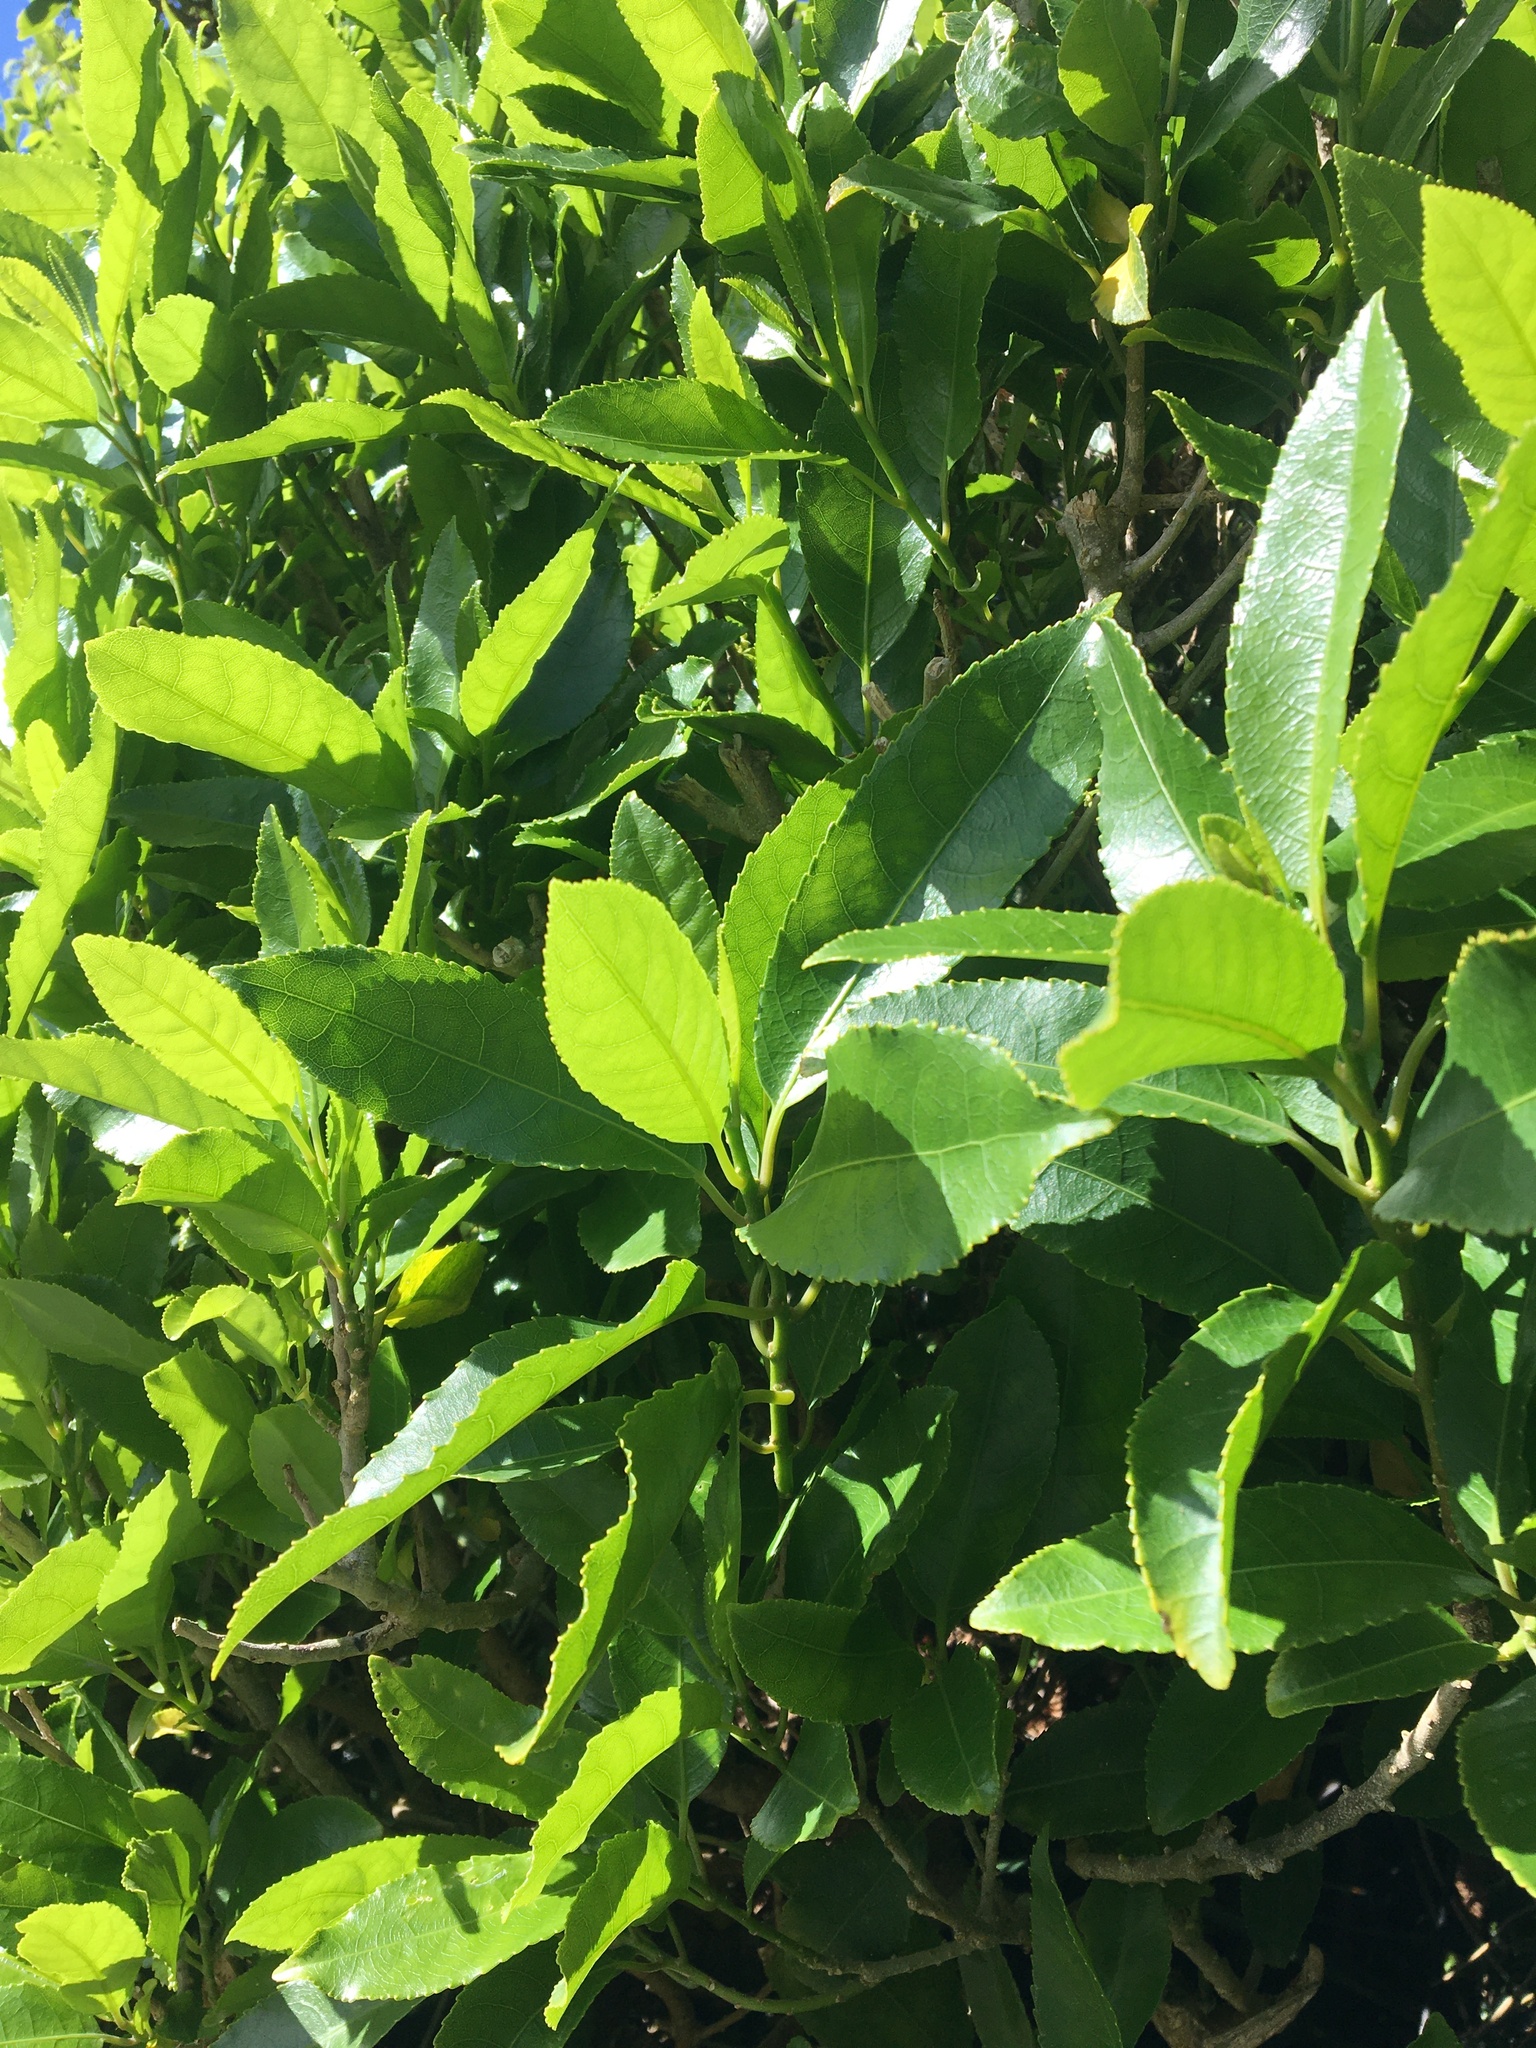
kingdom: Plantae
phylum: Tracheophyta
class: Magnoliopsida
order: Malpighiales
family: Violaceae
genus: Melicytus
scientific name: Melicytus ramiflorus
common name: Mahoe
